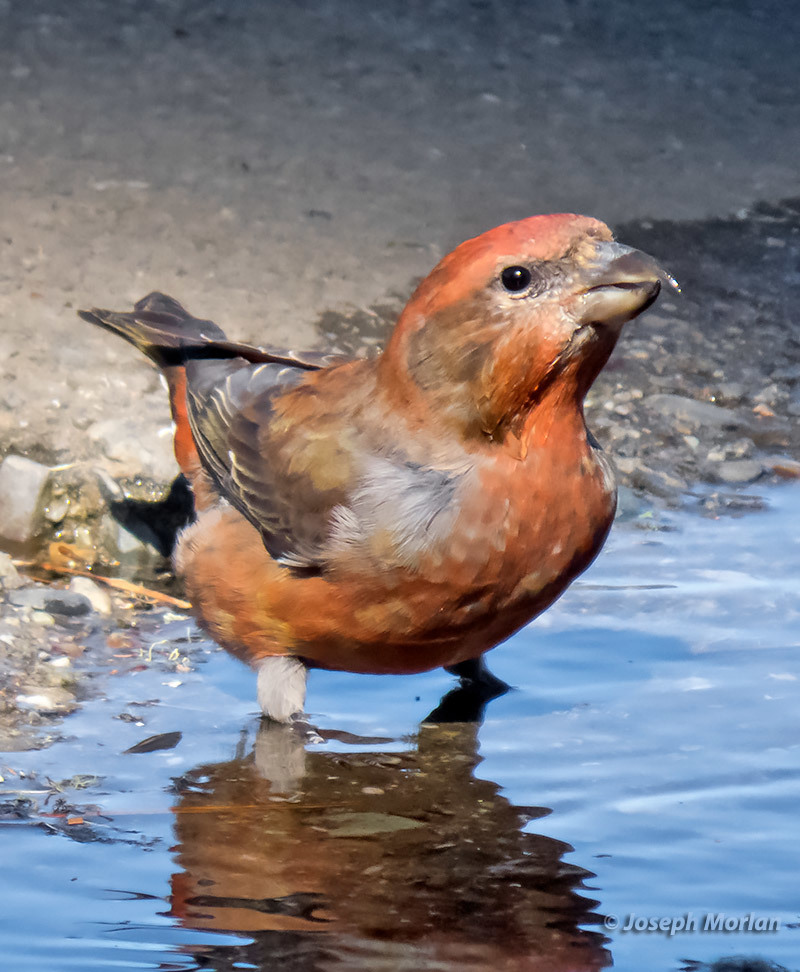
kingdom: Animalia
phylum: Chordata
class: Aves
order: Passeriformes
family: Fringillidae
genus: Loxia
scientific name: Loxia curvirostra
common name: Red crossbill
